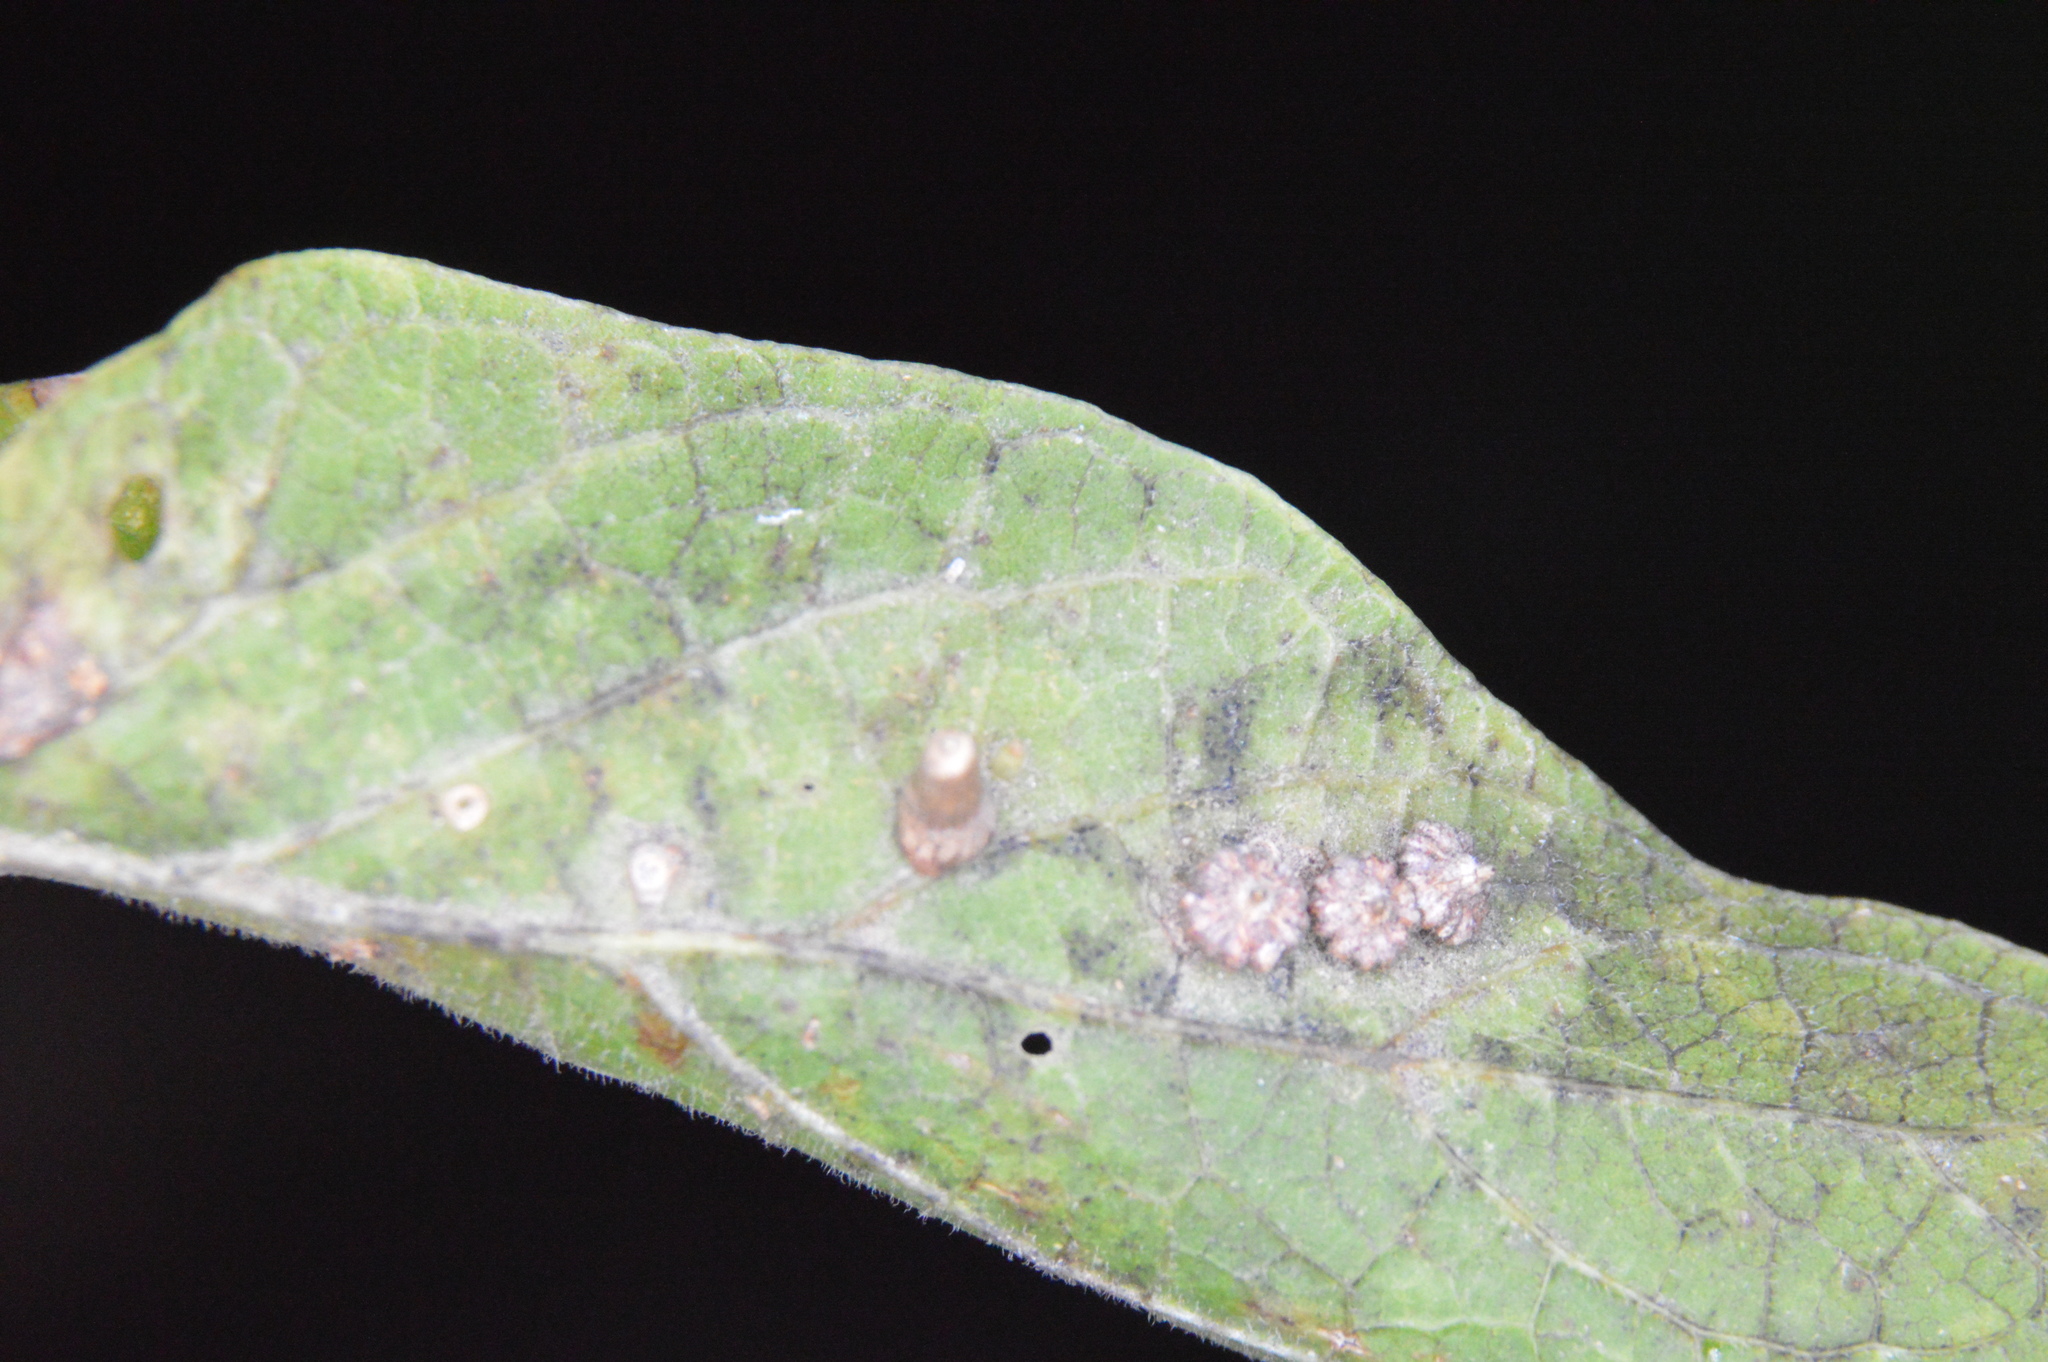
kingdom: Animalia
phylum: Arthropoda
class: Insecta
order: Diptera
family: Cecidomyiidae
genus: Celticecis
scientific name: Celticecis aciculata
